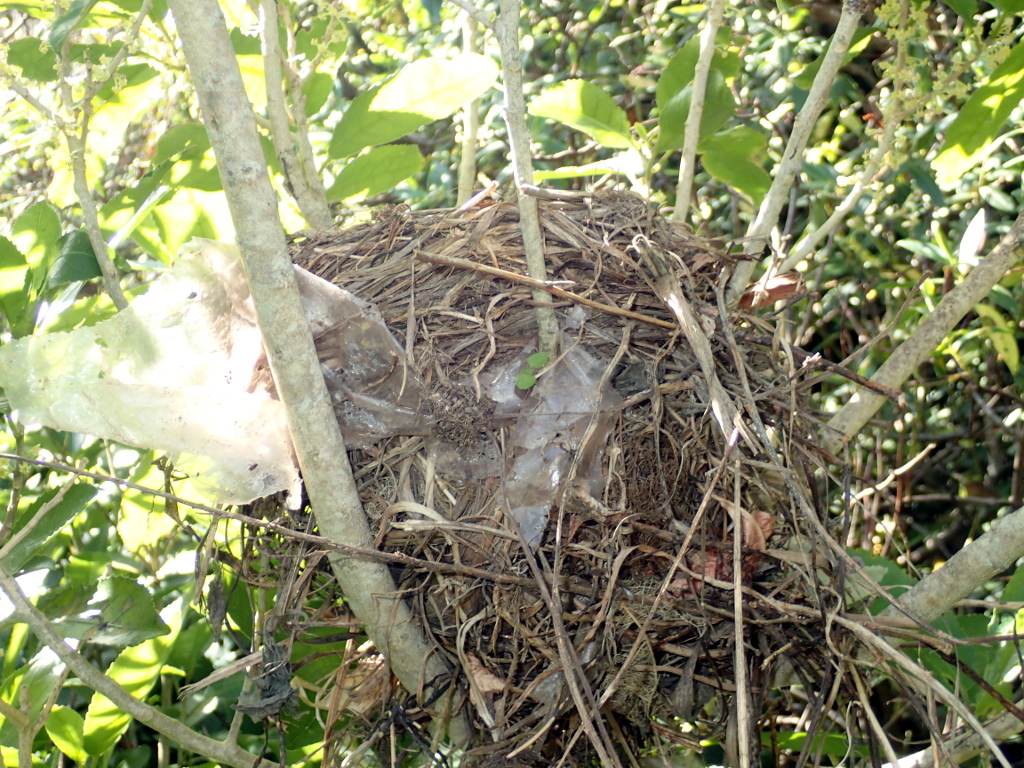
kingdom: Animalia
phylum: Chordata
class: Aves
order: Passeriformes
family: Turdidae
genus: Turdus
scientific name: Turdus merula
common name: Common blackbird
